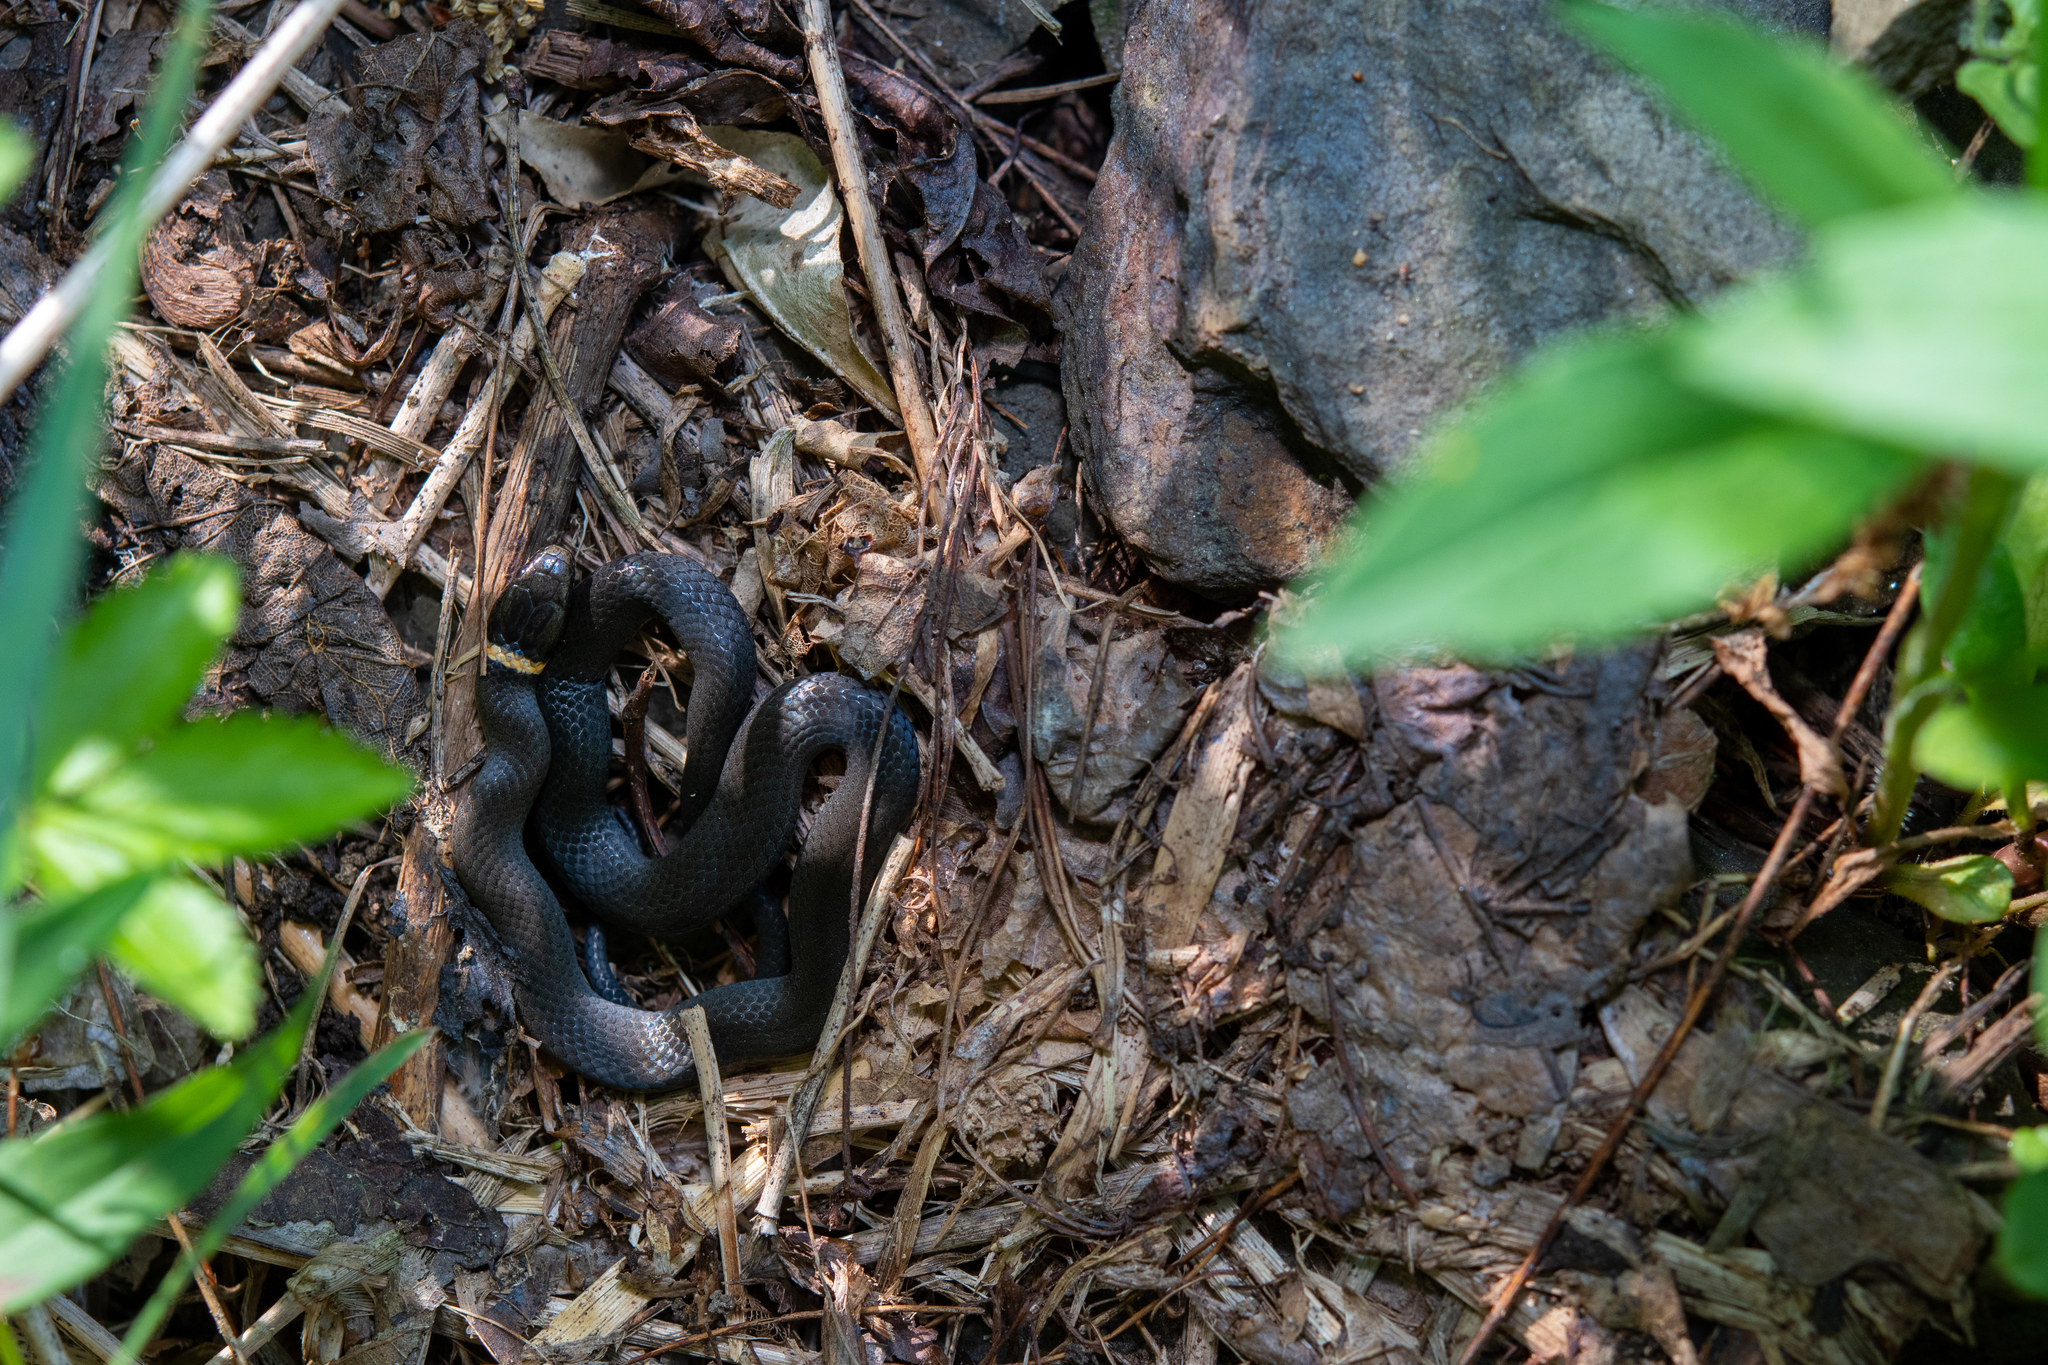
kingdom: Animalia
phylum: Chordata
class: Squamata
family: Colubridae
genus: Diadophis
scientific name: Diadophis punctatus
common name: Ringneck snake
